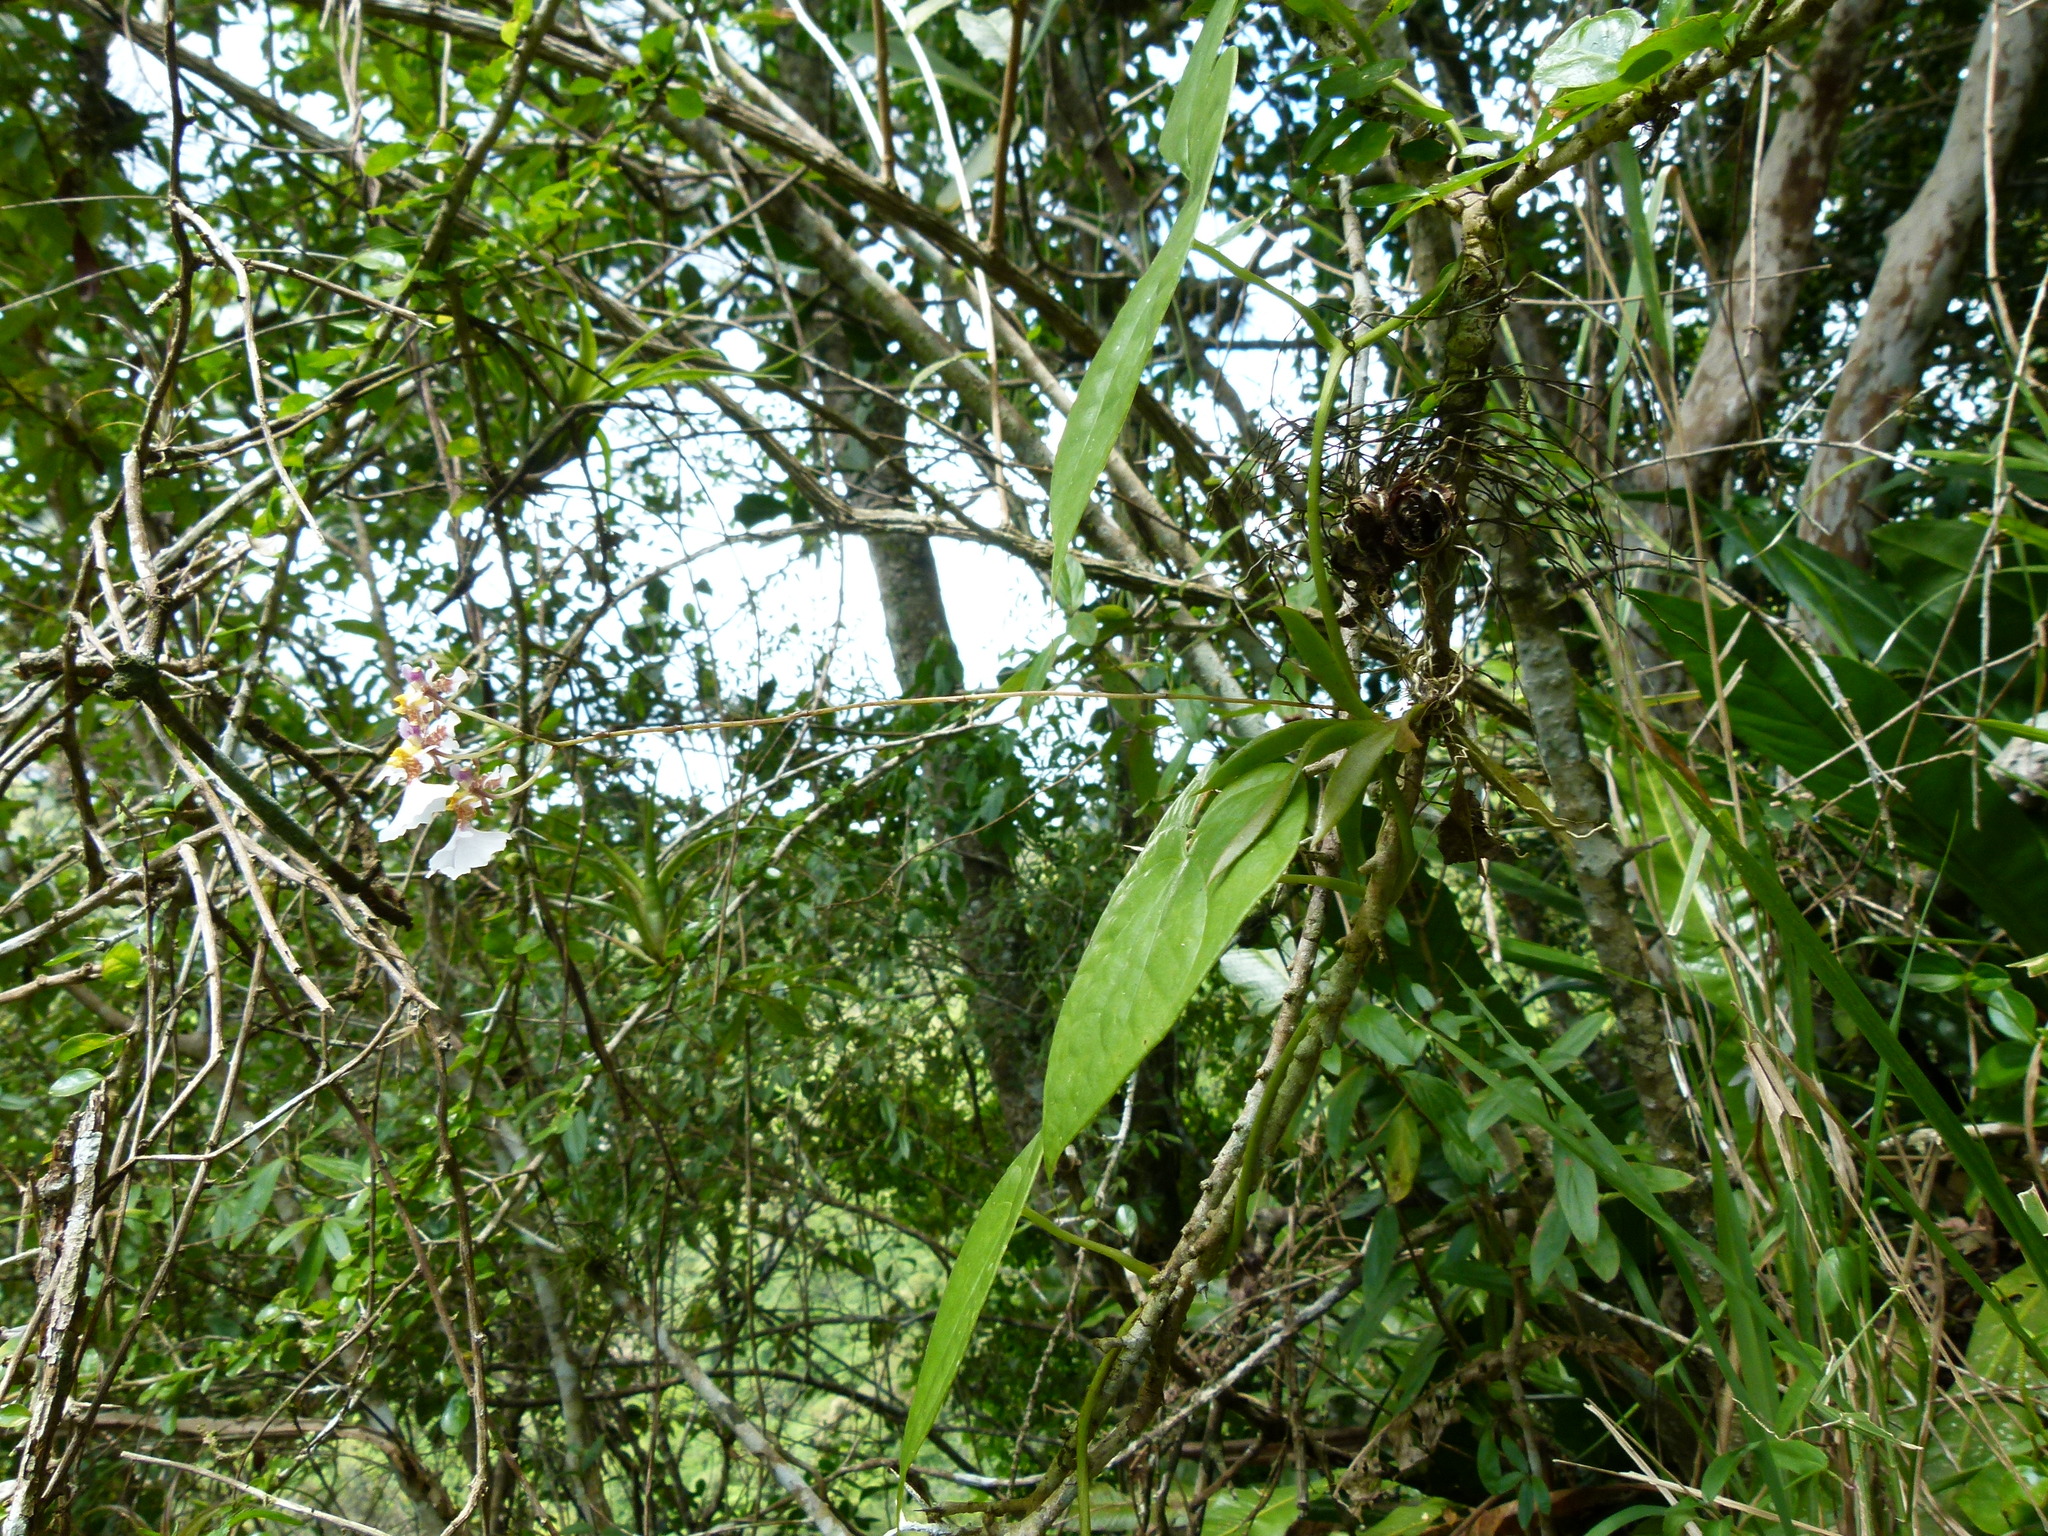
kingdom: Plantae
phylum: Tracheophyta
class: Liliopsida
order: Asparagales
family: Orchidaceae
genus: Tolumnia
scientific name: Tolumnia variegata
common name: Harlequin dancing-lady orchid
